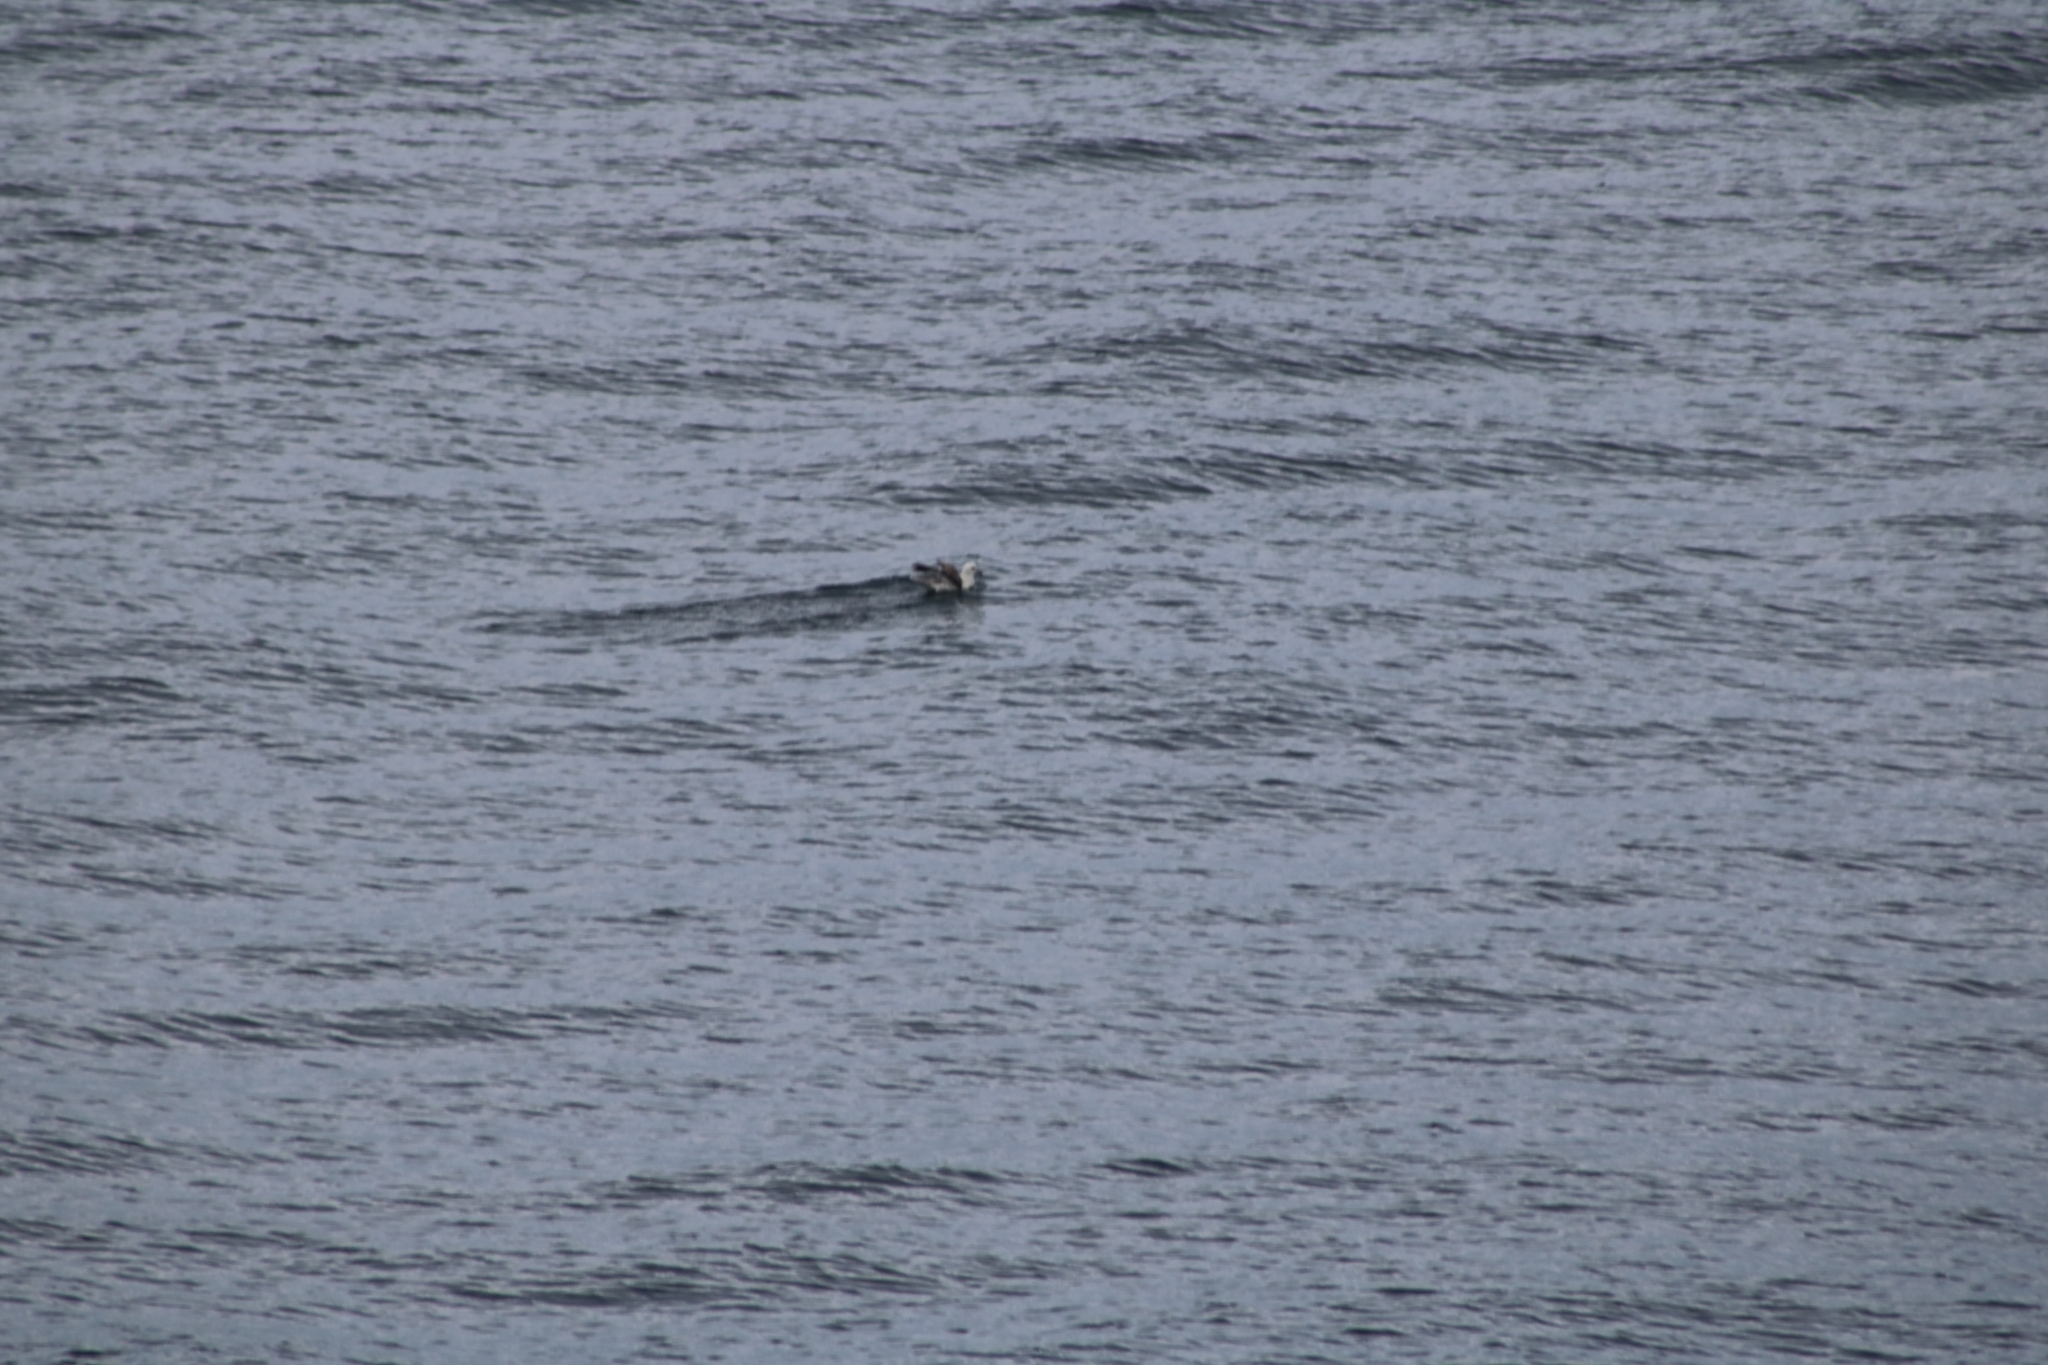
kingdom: Animalia
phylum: Chordata
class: Aves
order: Procellariiformes
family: Procellariidae
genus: Fulmarus
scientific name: Fulmarus glacialis
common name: Northern fulmar
